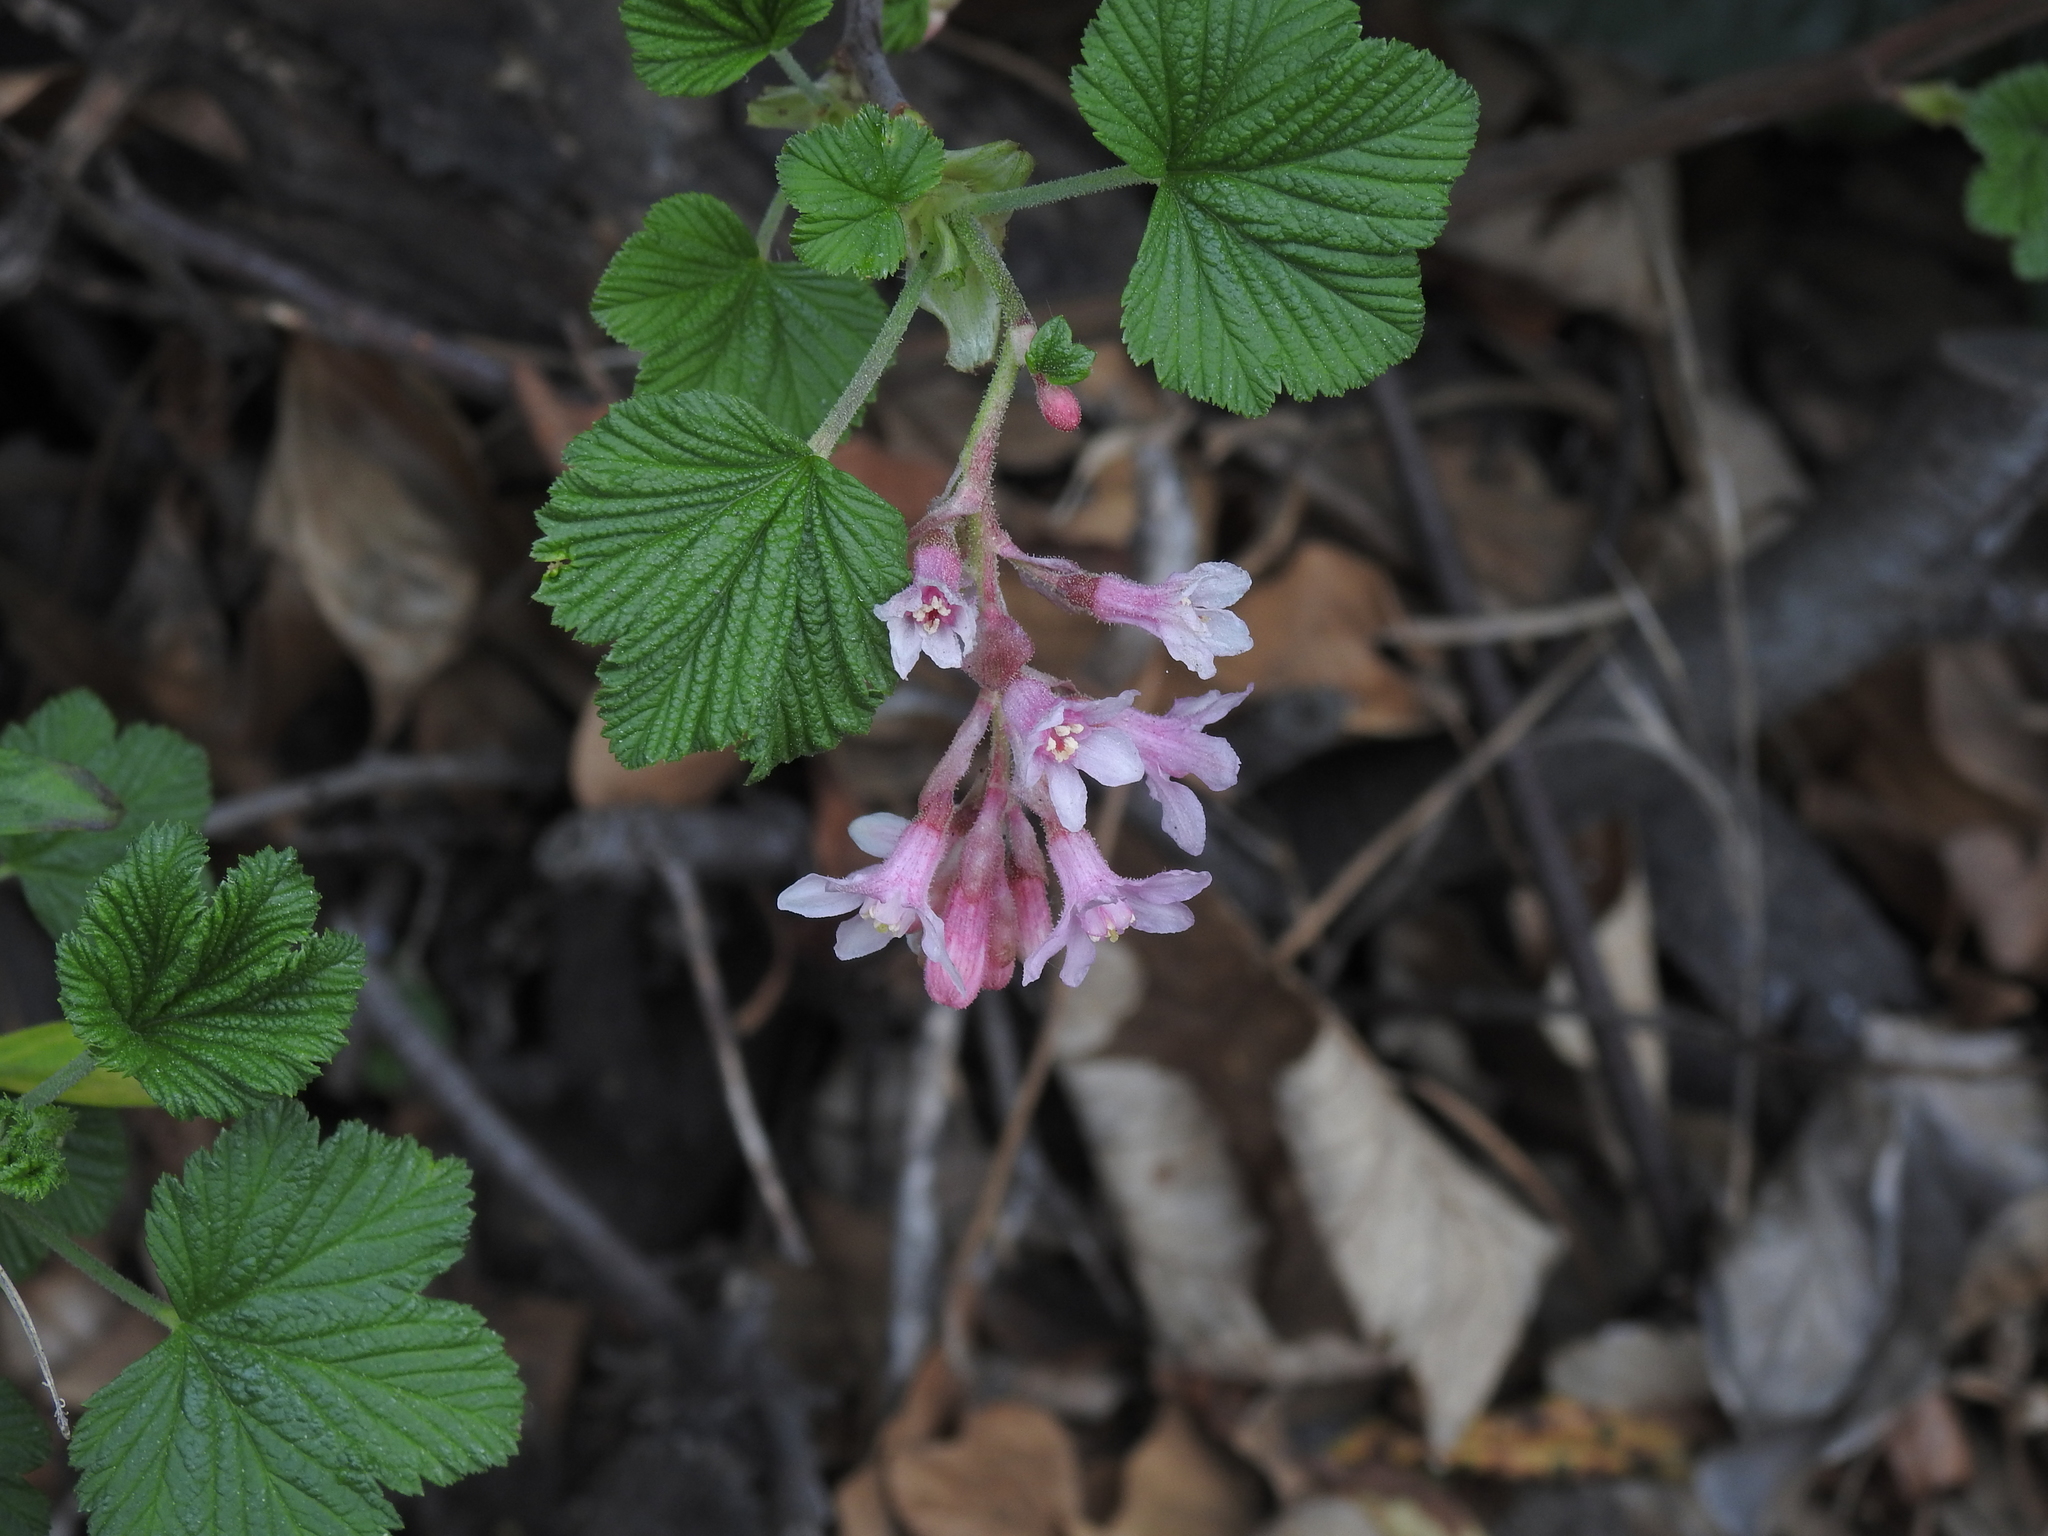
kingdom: Plantae
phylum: Tracheophyta
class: Magnoliopsida
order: Saxifragales
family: Grossulariaceae
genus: Ribes
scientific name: Ribes sanguineum
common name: Flowering currant
